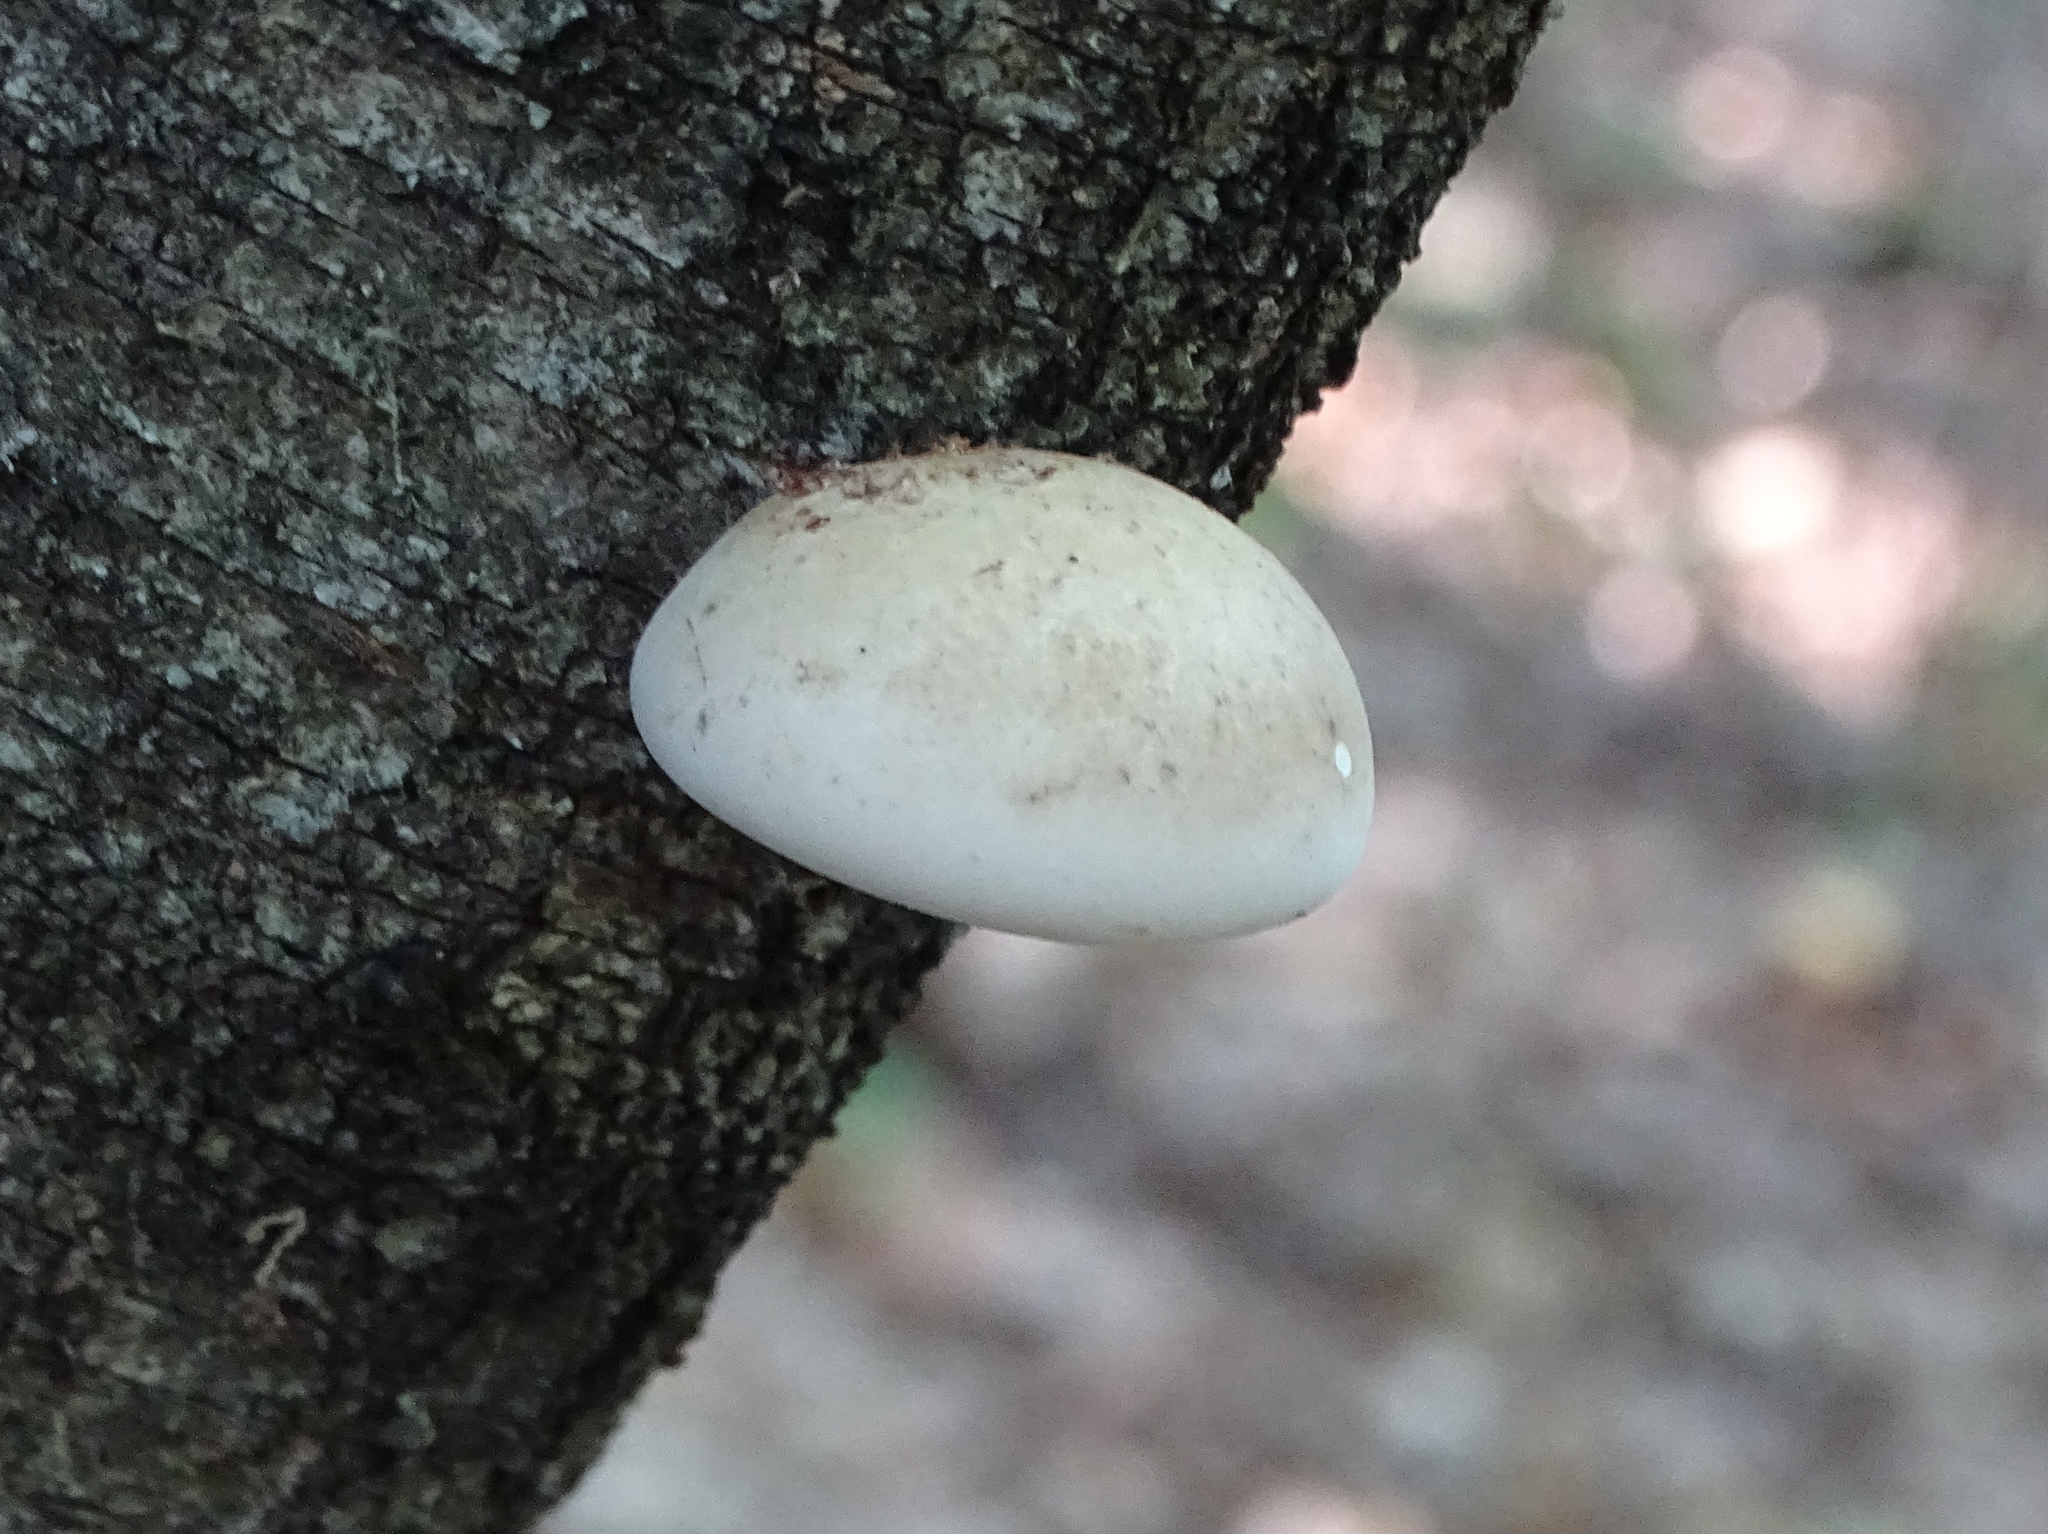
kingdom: Fungi
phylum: Basidiomycota
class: Agaricomycetes
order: Polyporales
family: Fomitopsidaceae
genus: Fomitopsis
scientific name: Fomitopsis betulina
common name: Birch polypore
